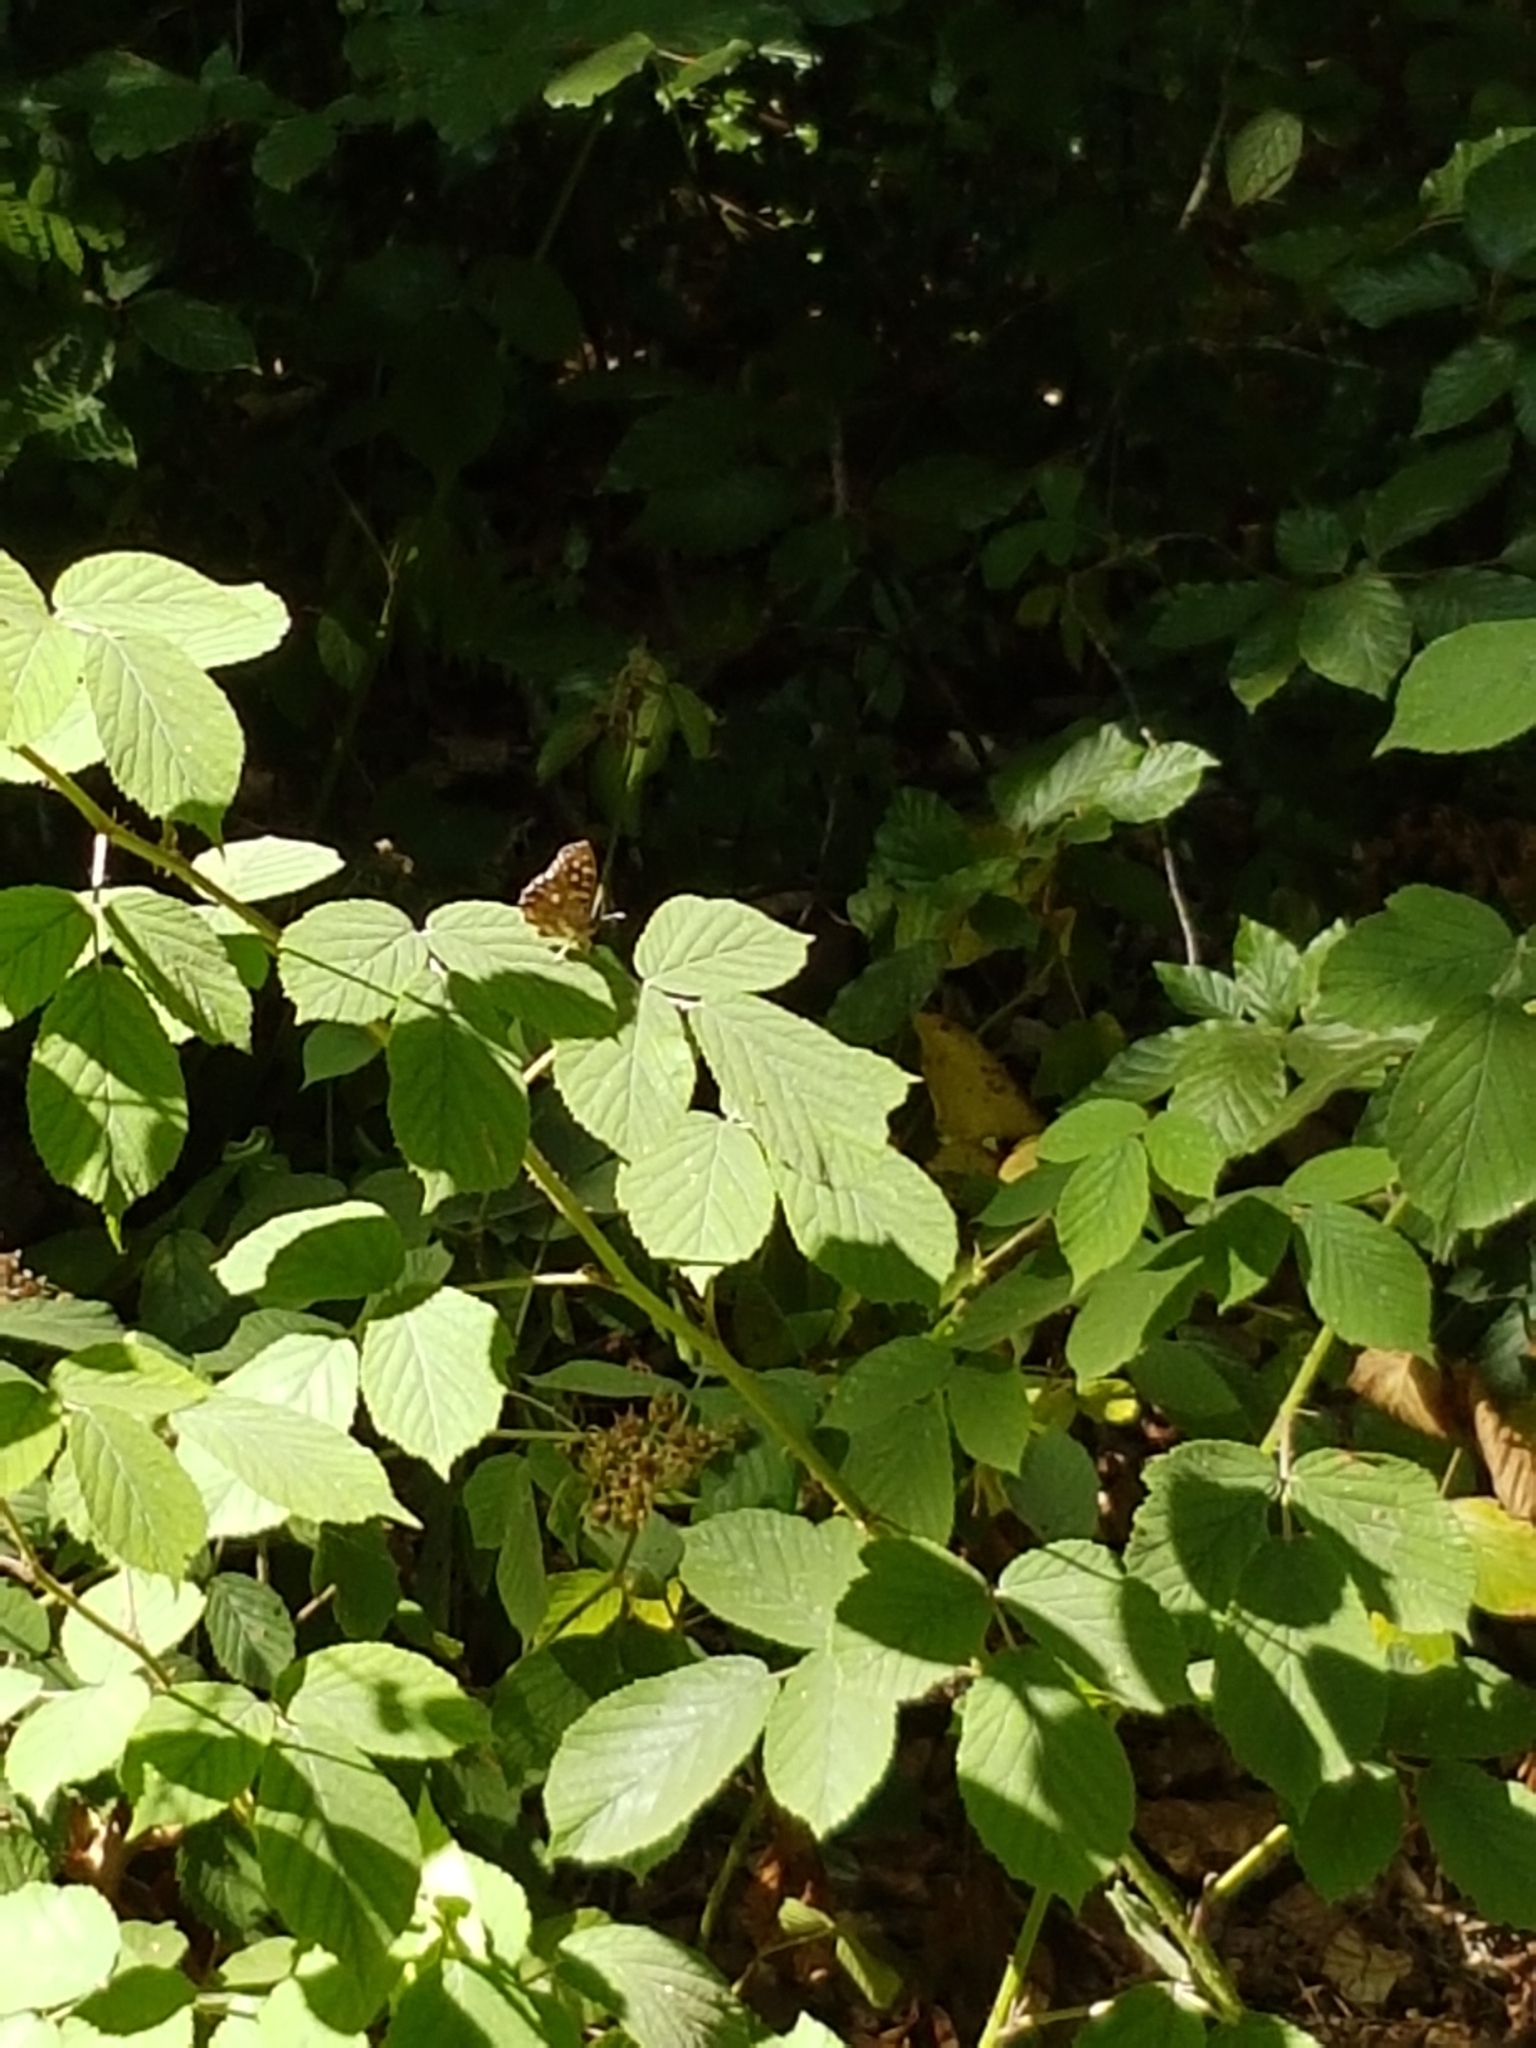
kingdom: Animalia
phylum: Arthropoda
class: Insecta
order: Lepidoptera
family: Nymphalidae
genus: Pararge
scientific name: Pararge aegeria
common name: Speckled wood
